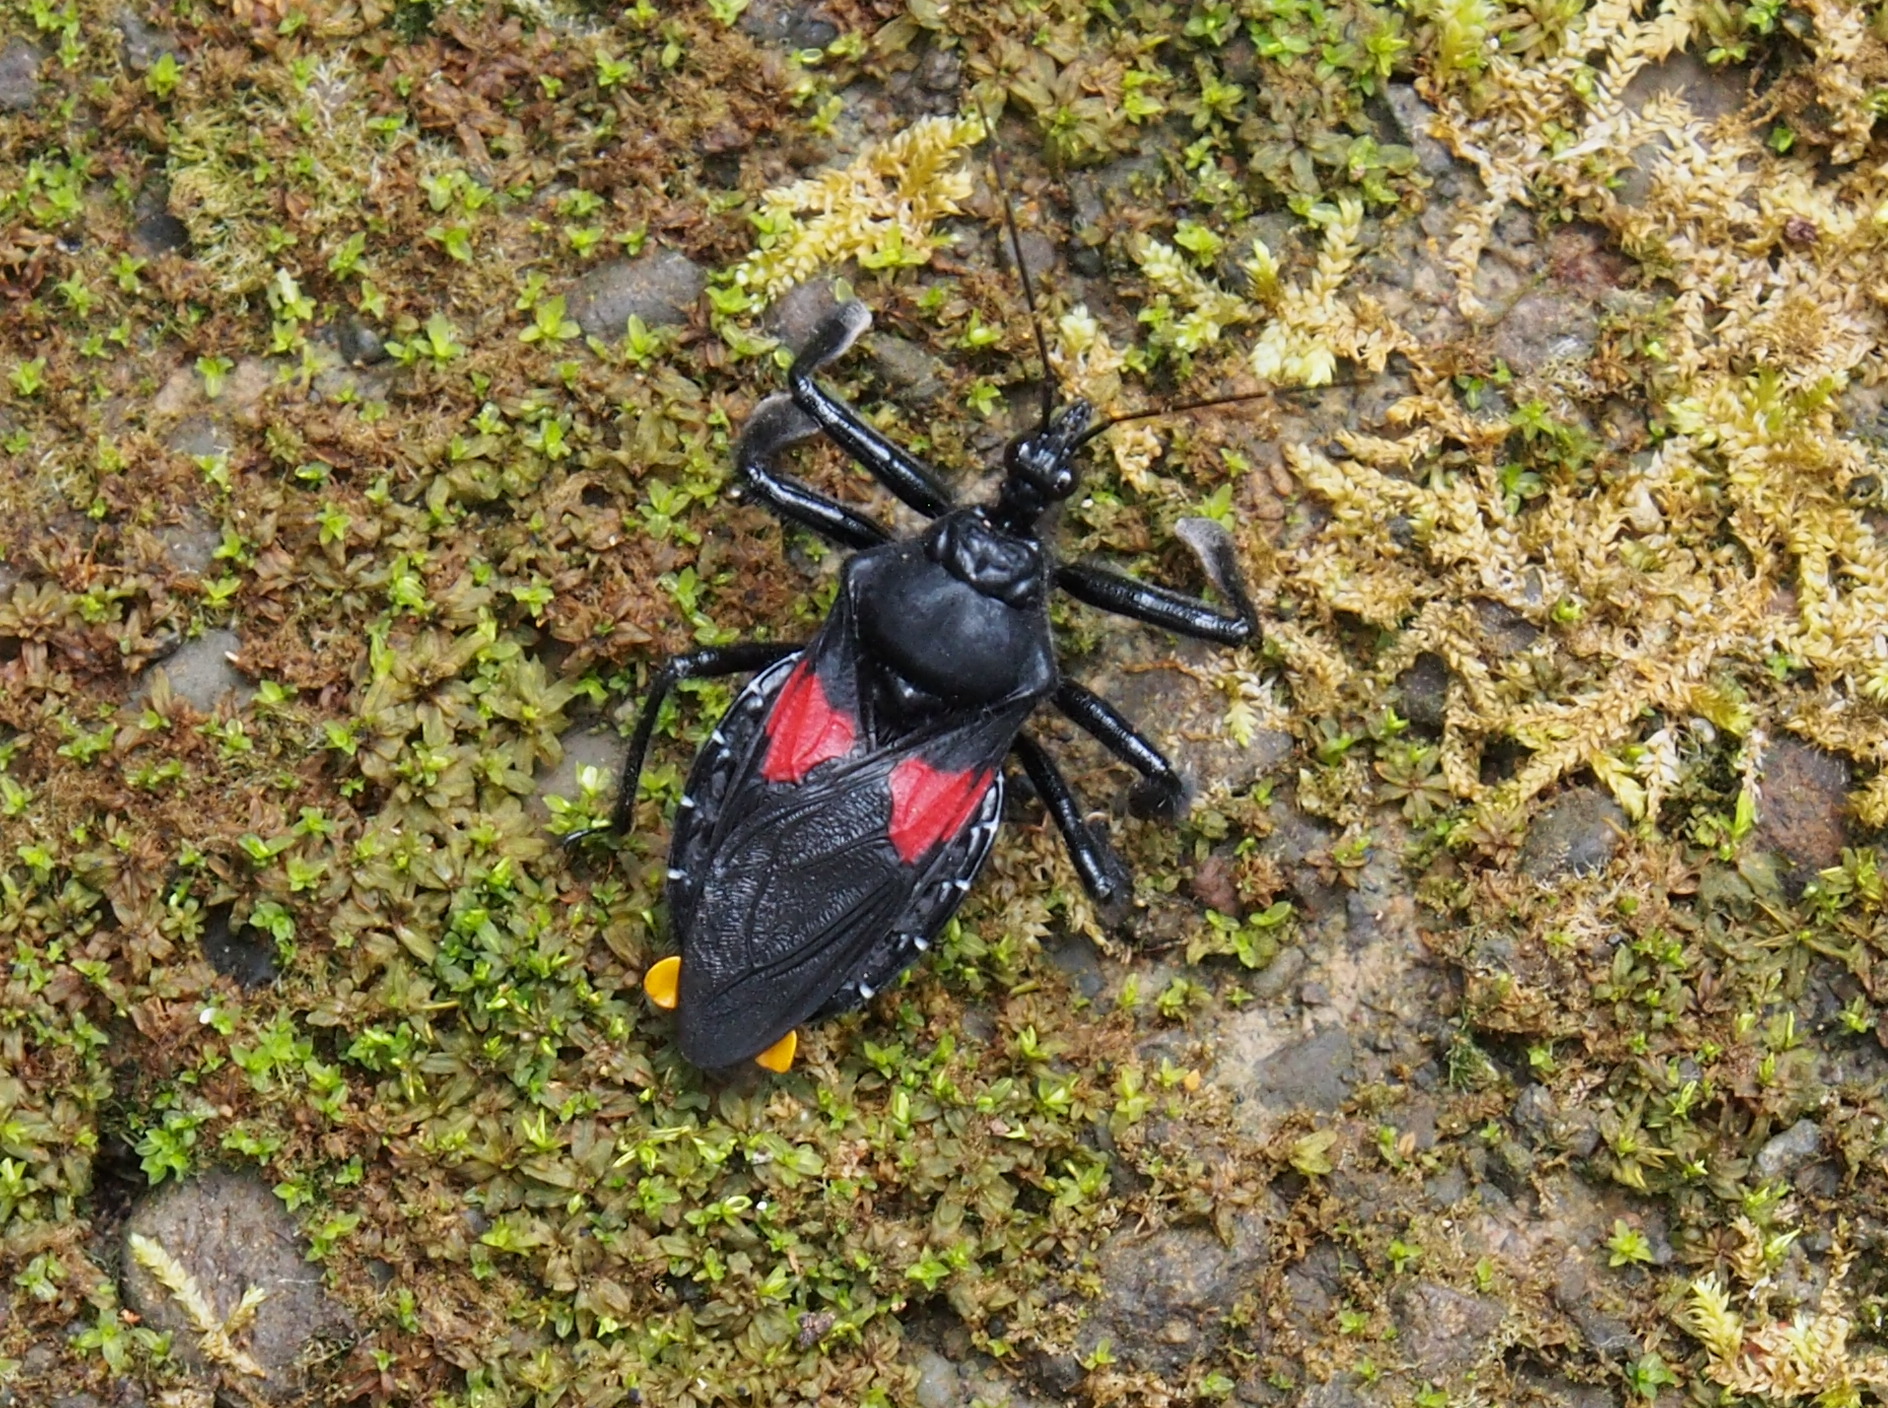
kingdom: Animalia
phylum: Arthropoda
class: Insecta
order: Hemiptera
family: Reduviidae
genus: Apiomerus
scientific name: Apiomerus elatus
